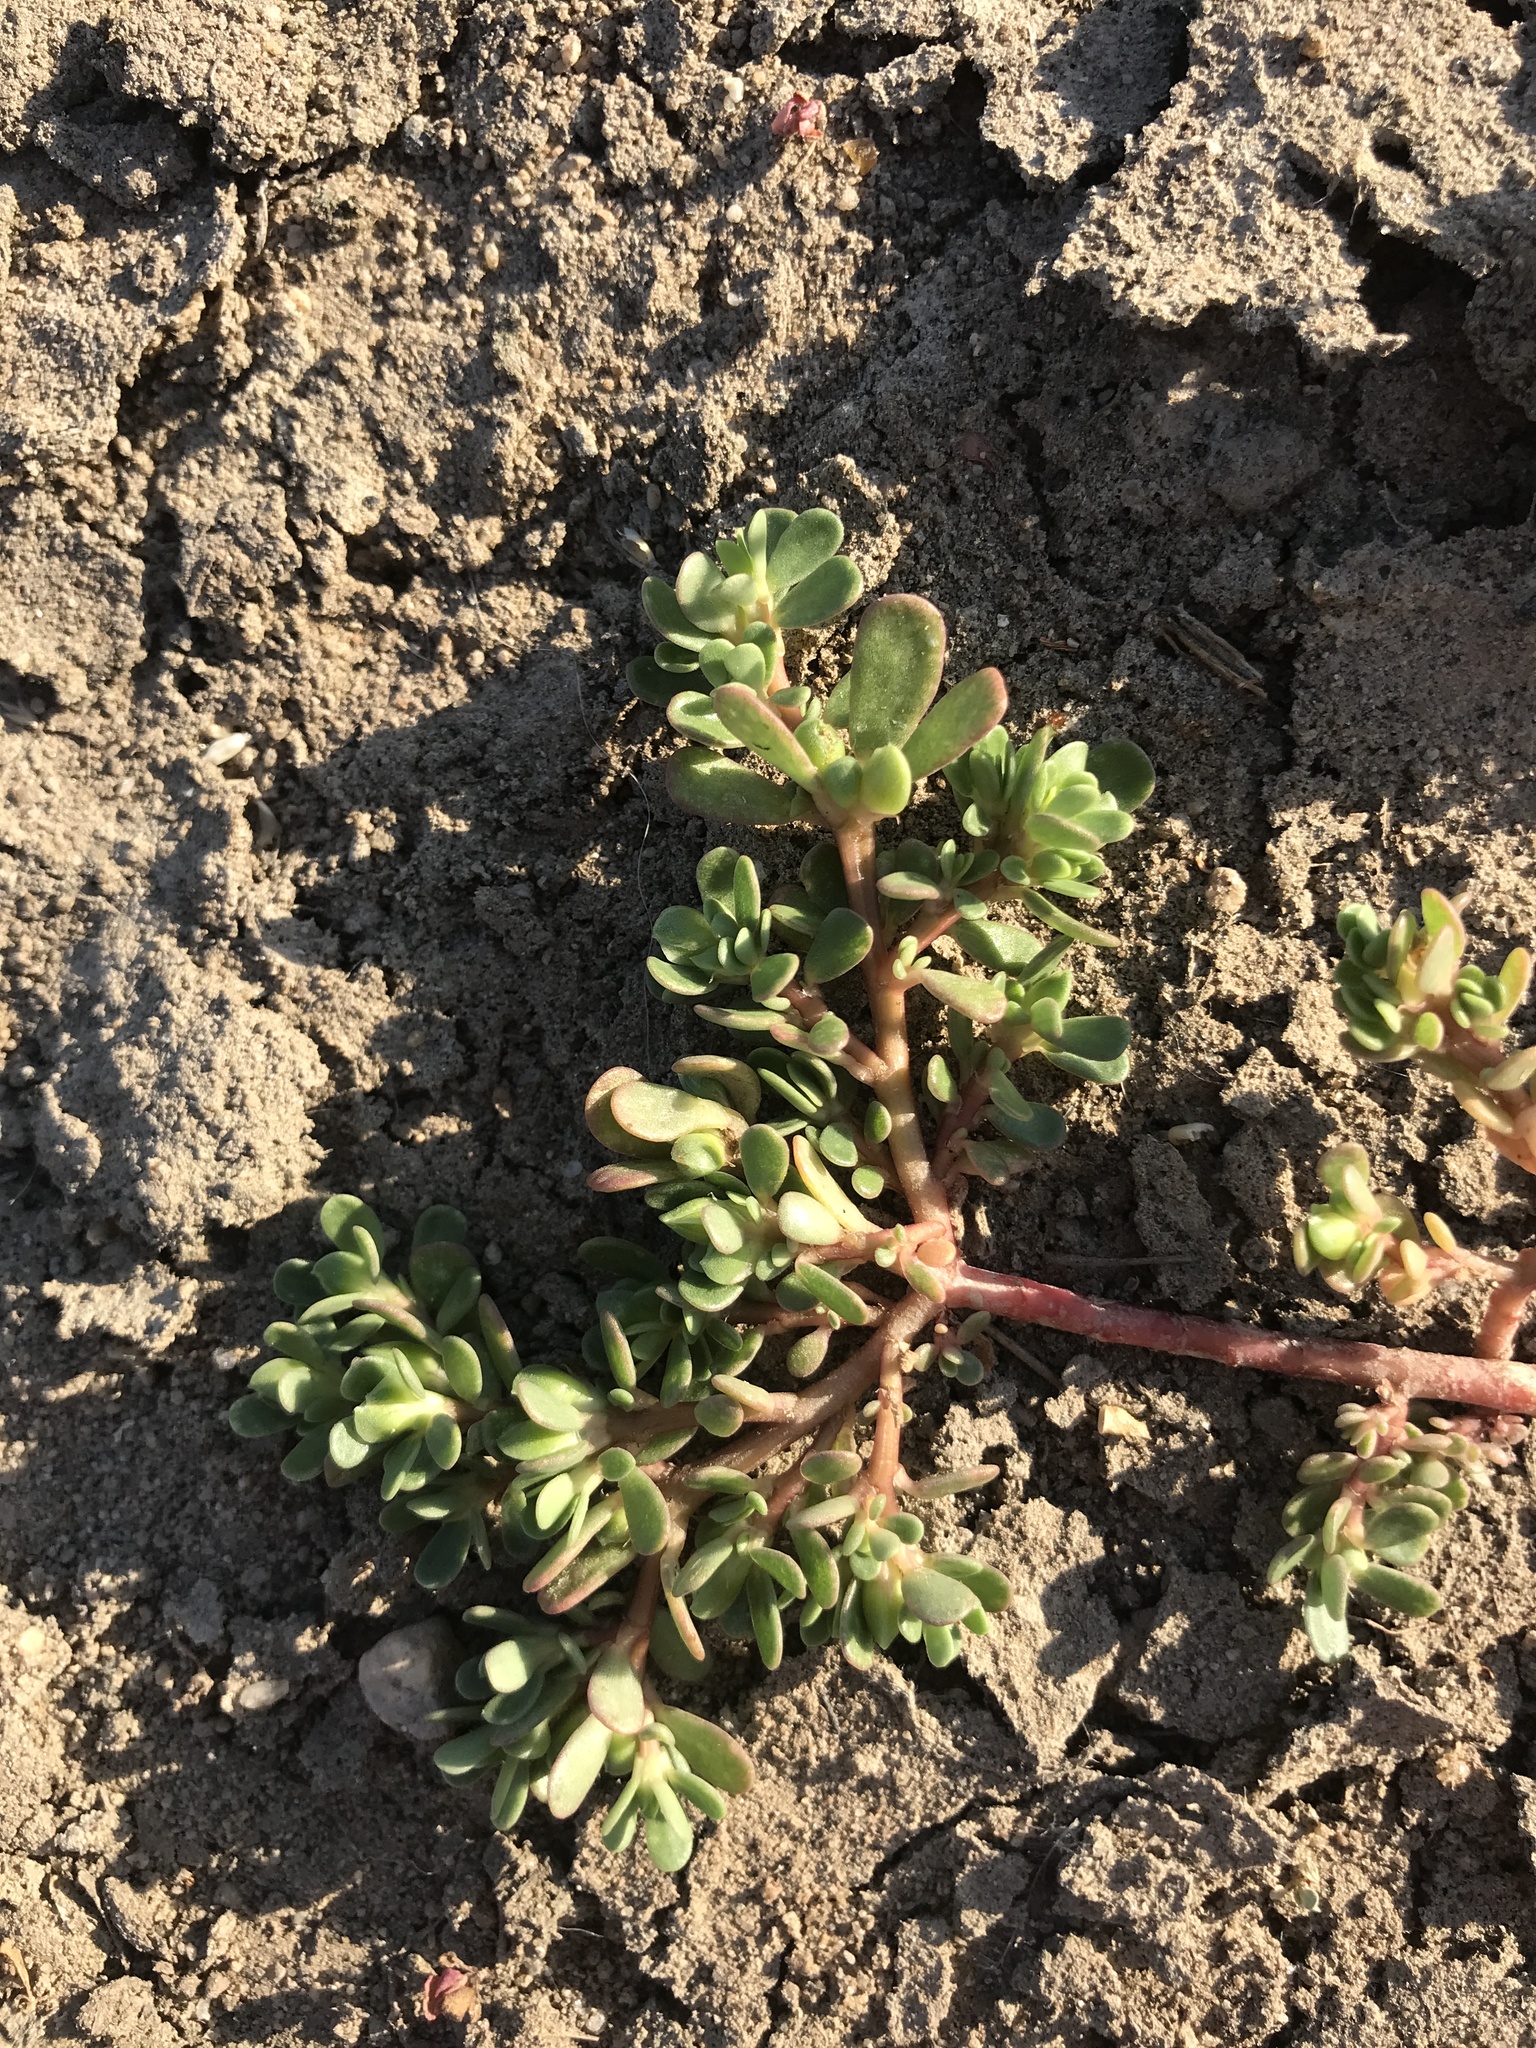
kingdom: Plantae
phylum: Tracheophyta
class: Magnoliopsida
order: Caryophyllales
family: Portulacaceae
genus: Portulaca
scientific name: Portulaca oleracea
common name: Common purslane
